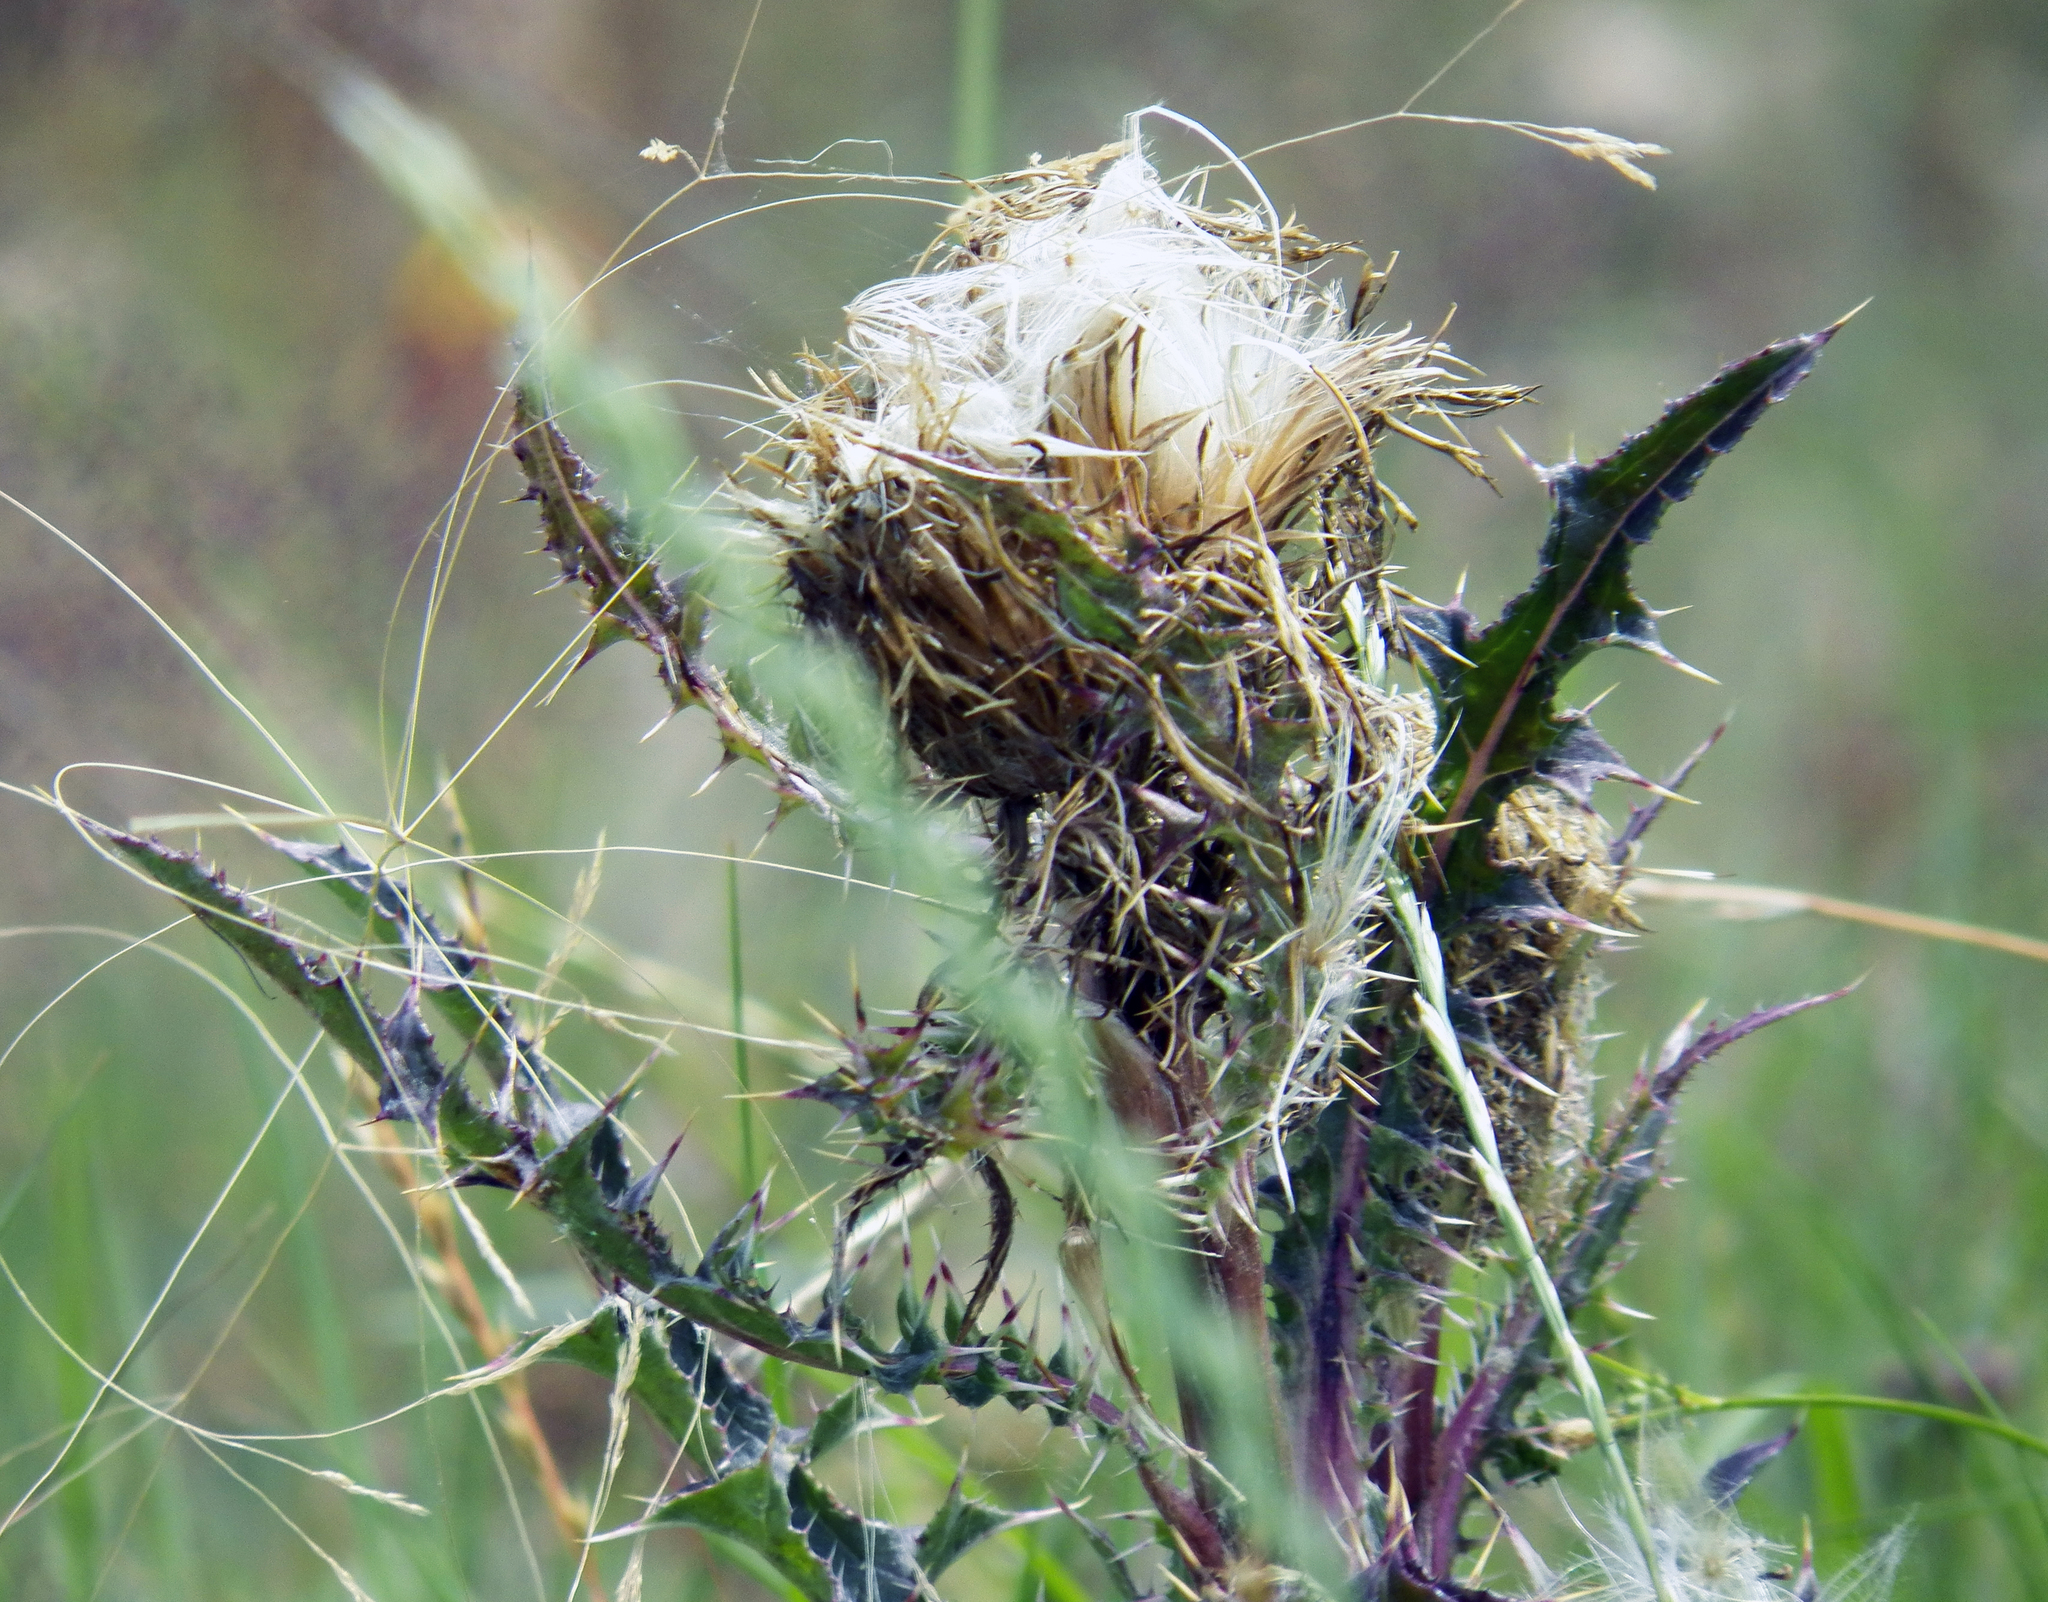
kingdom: Plantae
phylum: Tracheophyta
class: Magnoliopsida
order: Asterales
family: Asteraceae
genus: Cirsium
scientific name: Cirsium horridulum
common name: Bristly thistle
